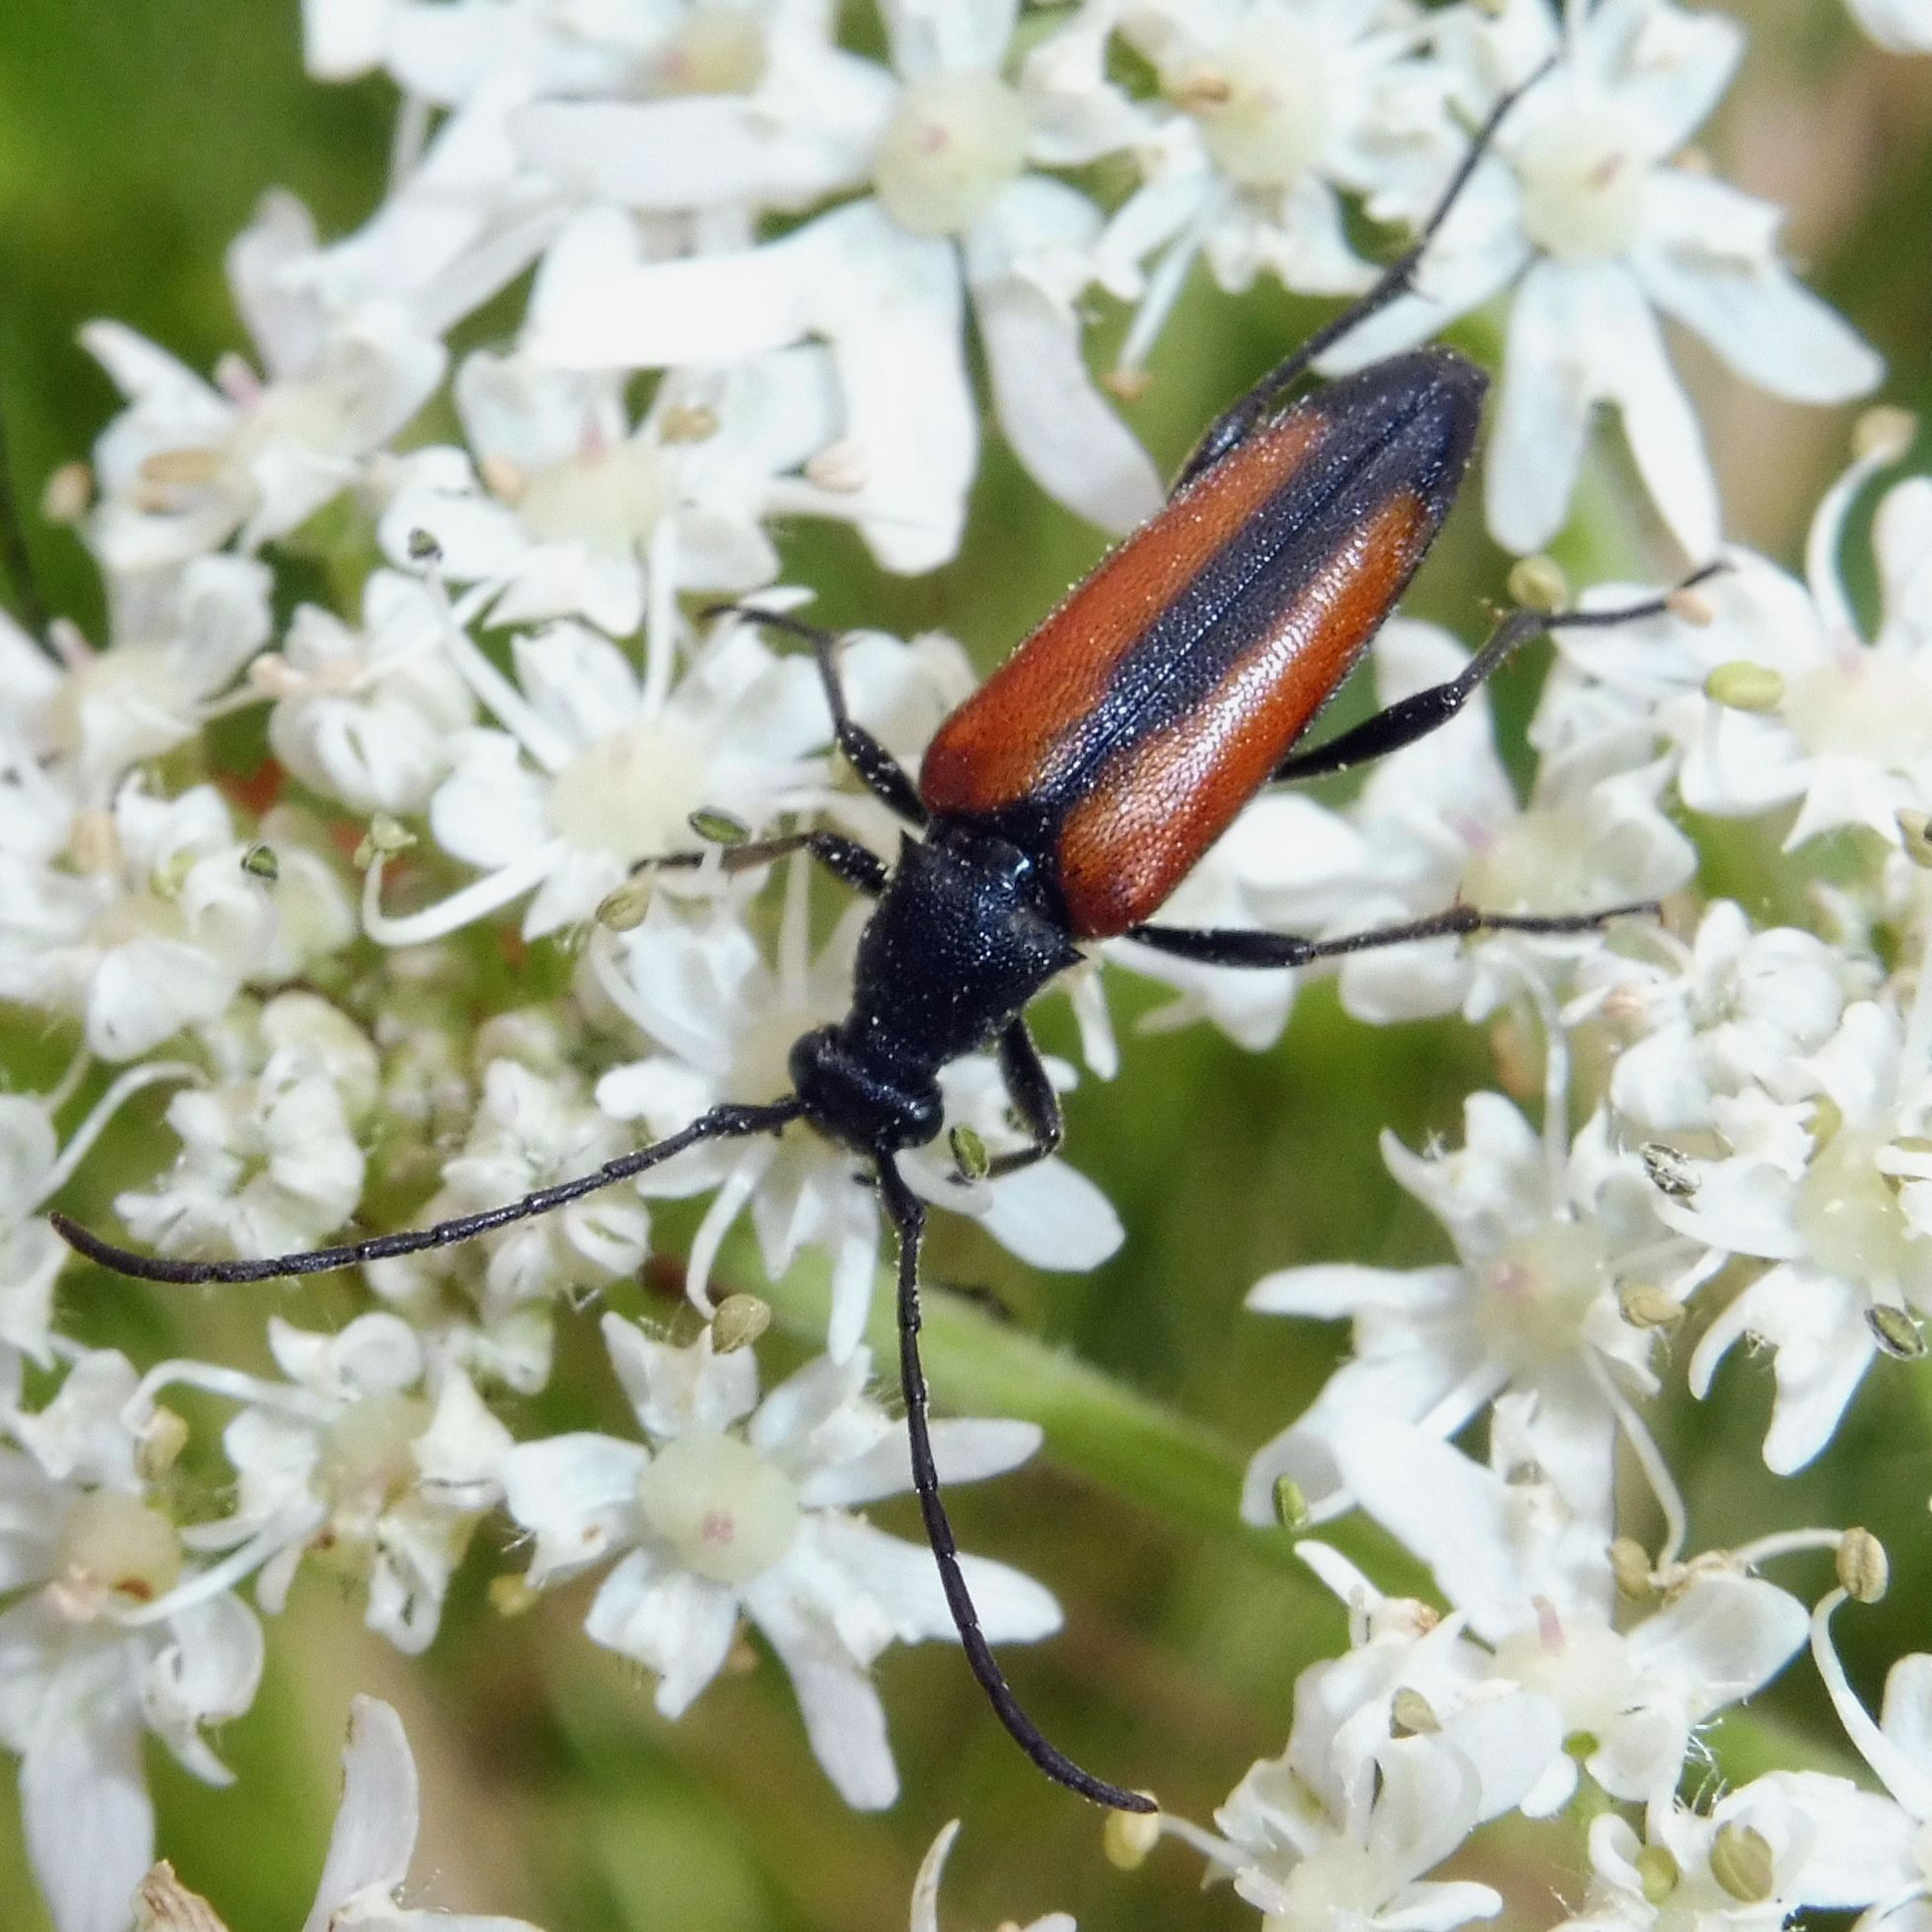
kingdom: Animalia
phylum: Arthropoda
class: Insecta
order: Coleoptera
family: Cerambycidae
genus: Stenurella
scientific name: Stenurella melanura
